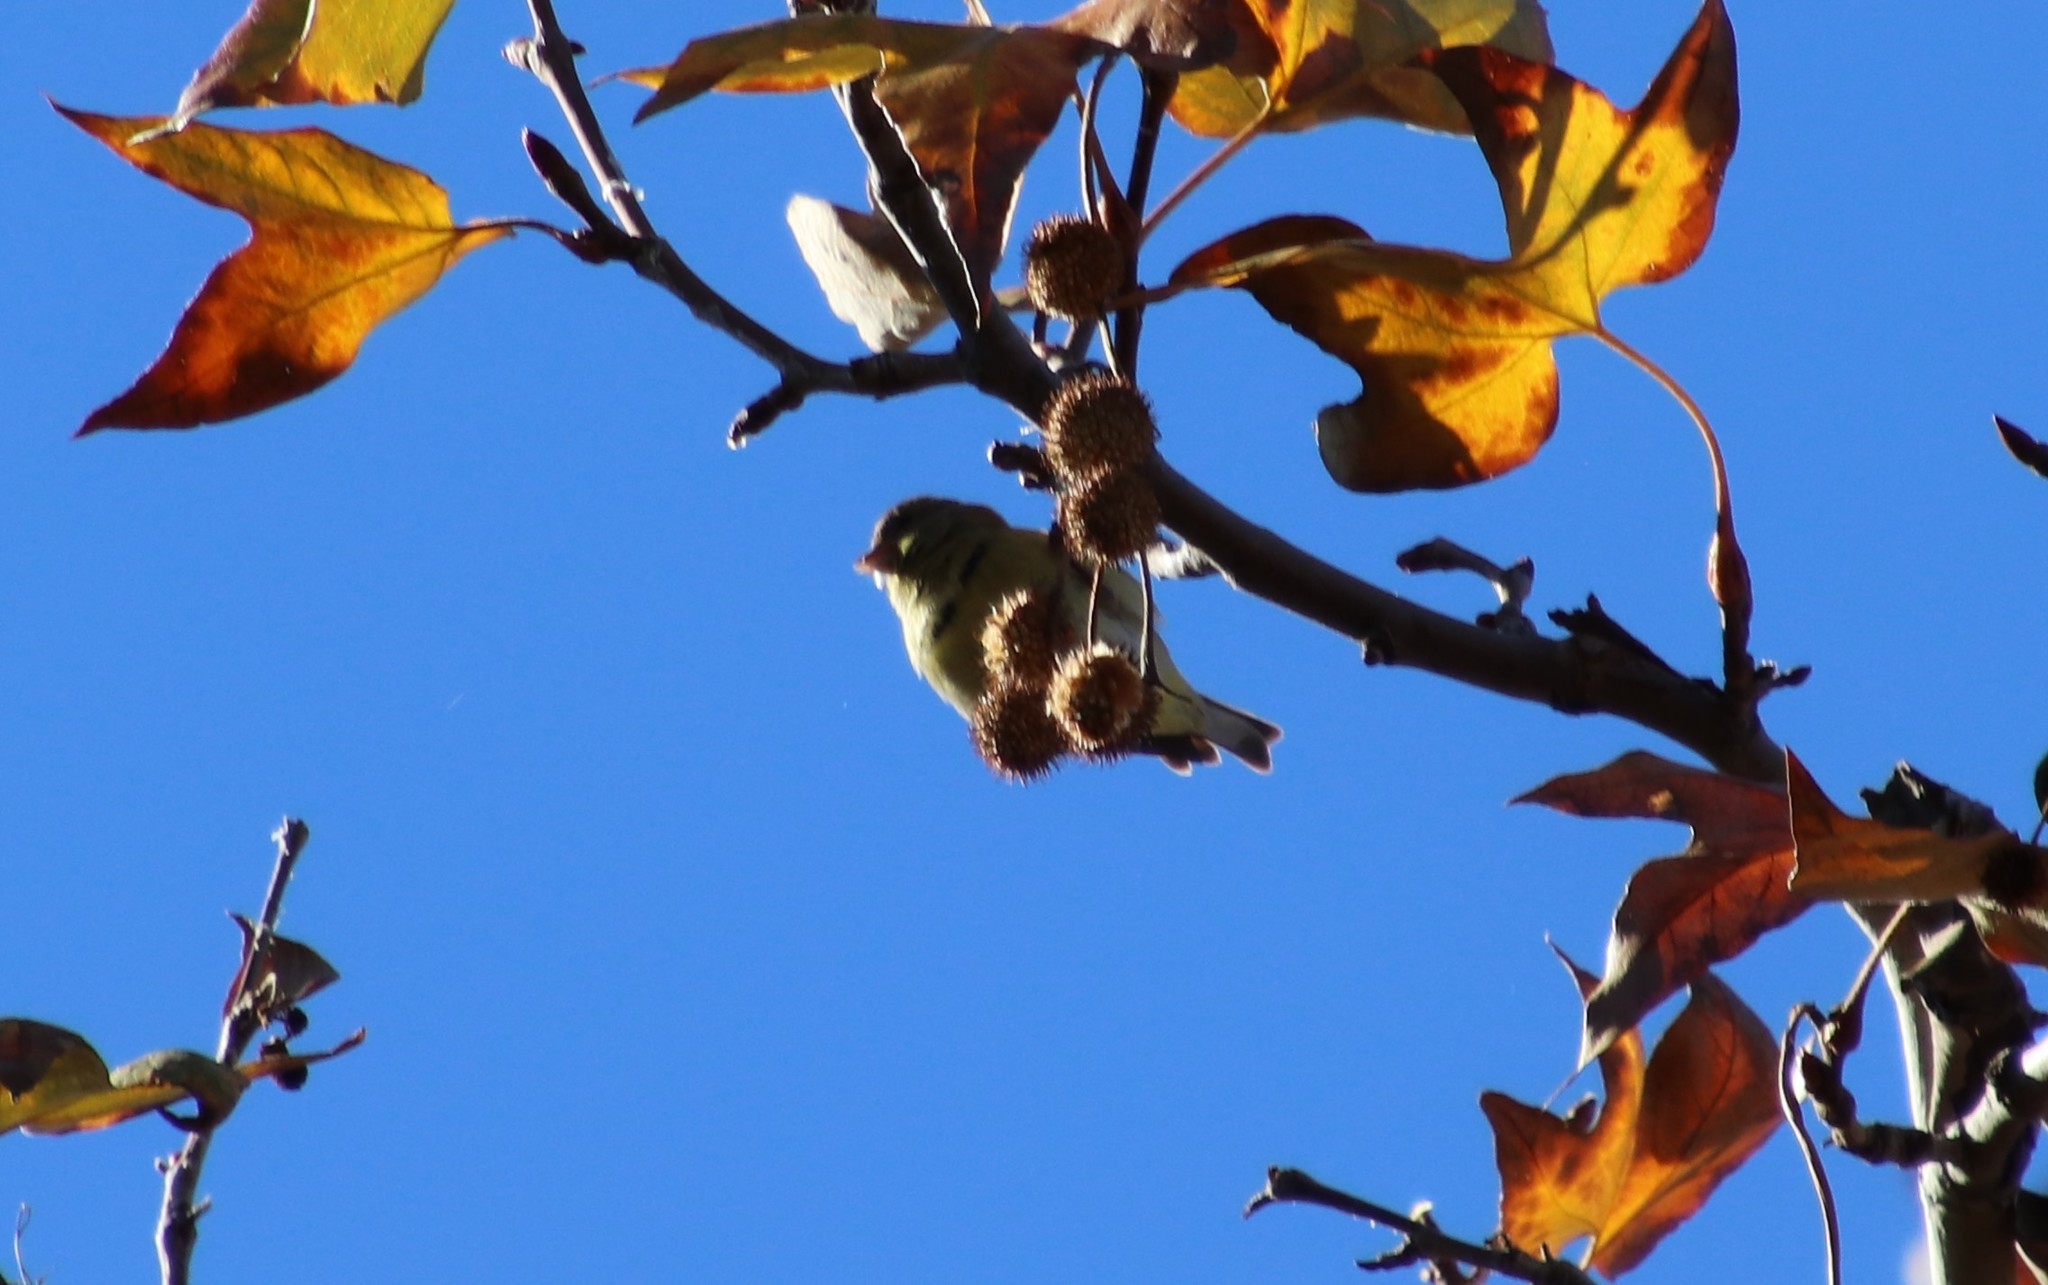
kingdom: Animalia
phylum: Chordata
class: Aves
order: Passeriformes
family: Fringillidae
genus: Spinus
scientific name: Spinus psaltria
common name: Lesser goldfinch
